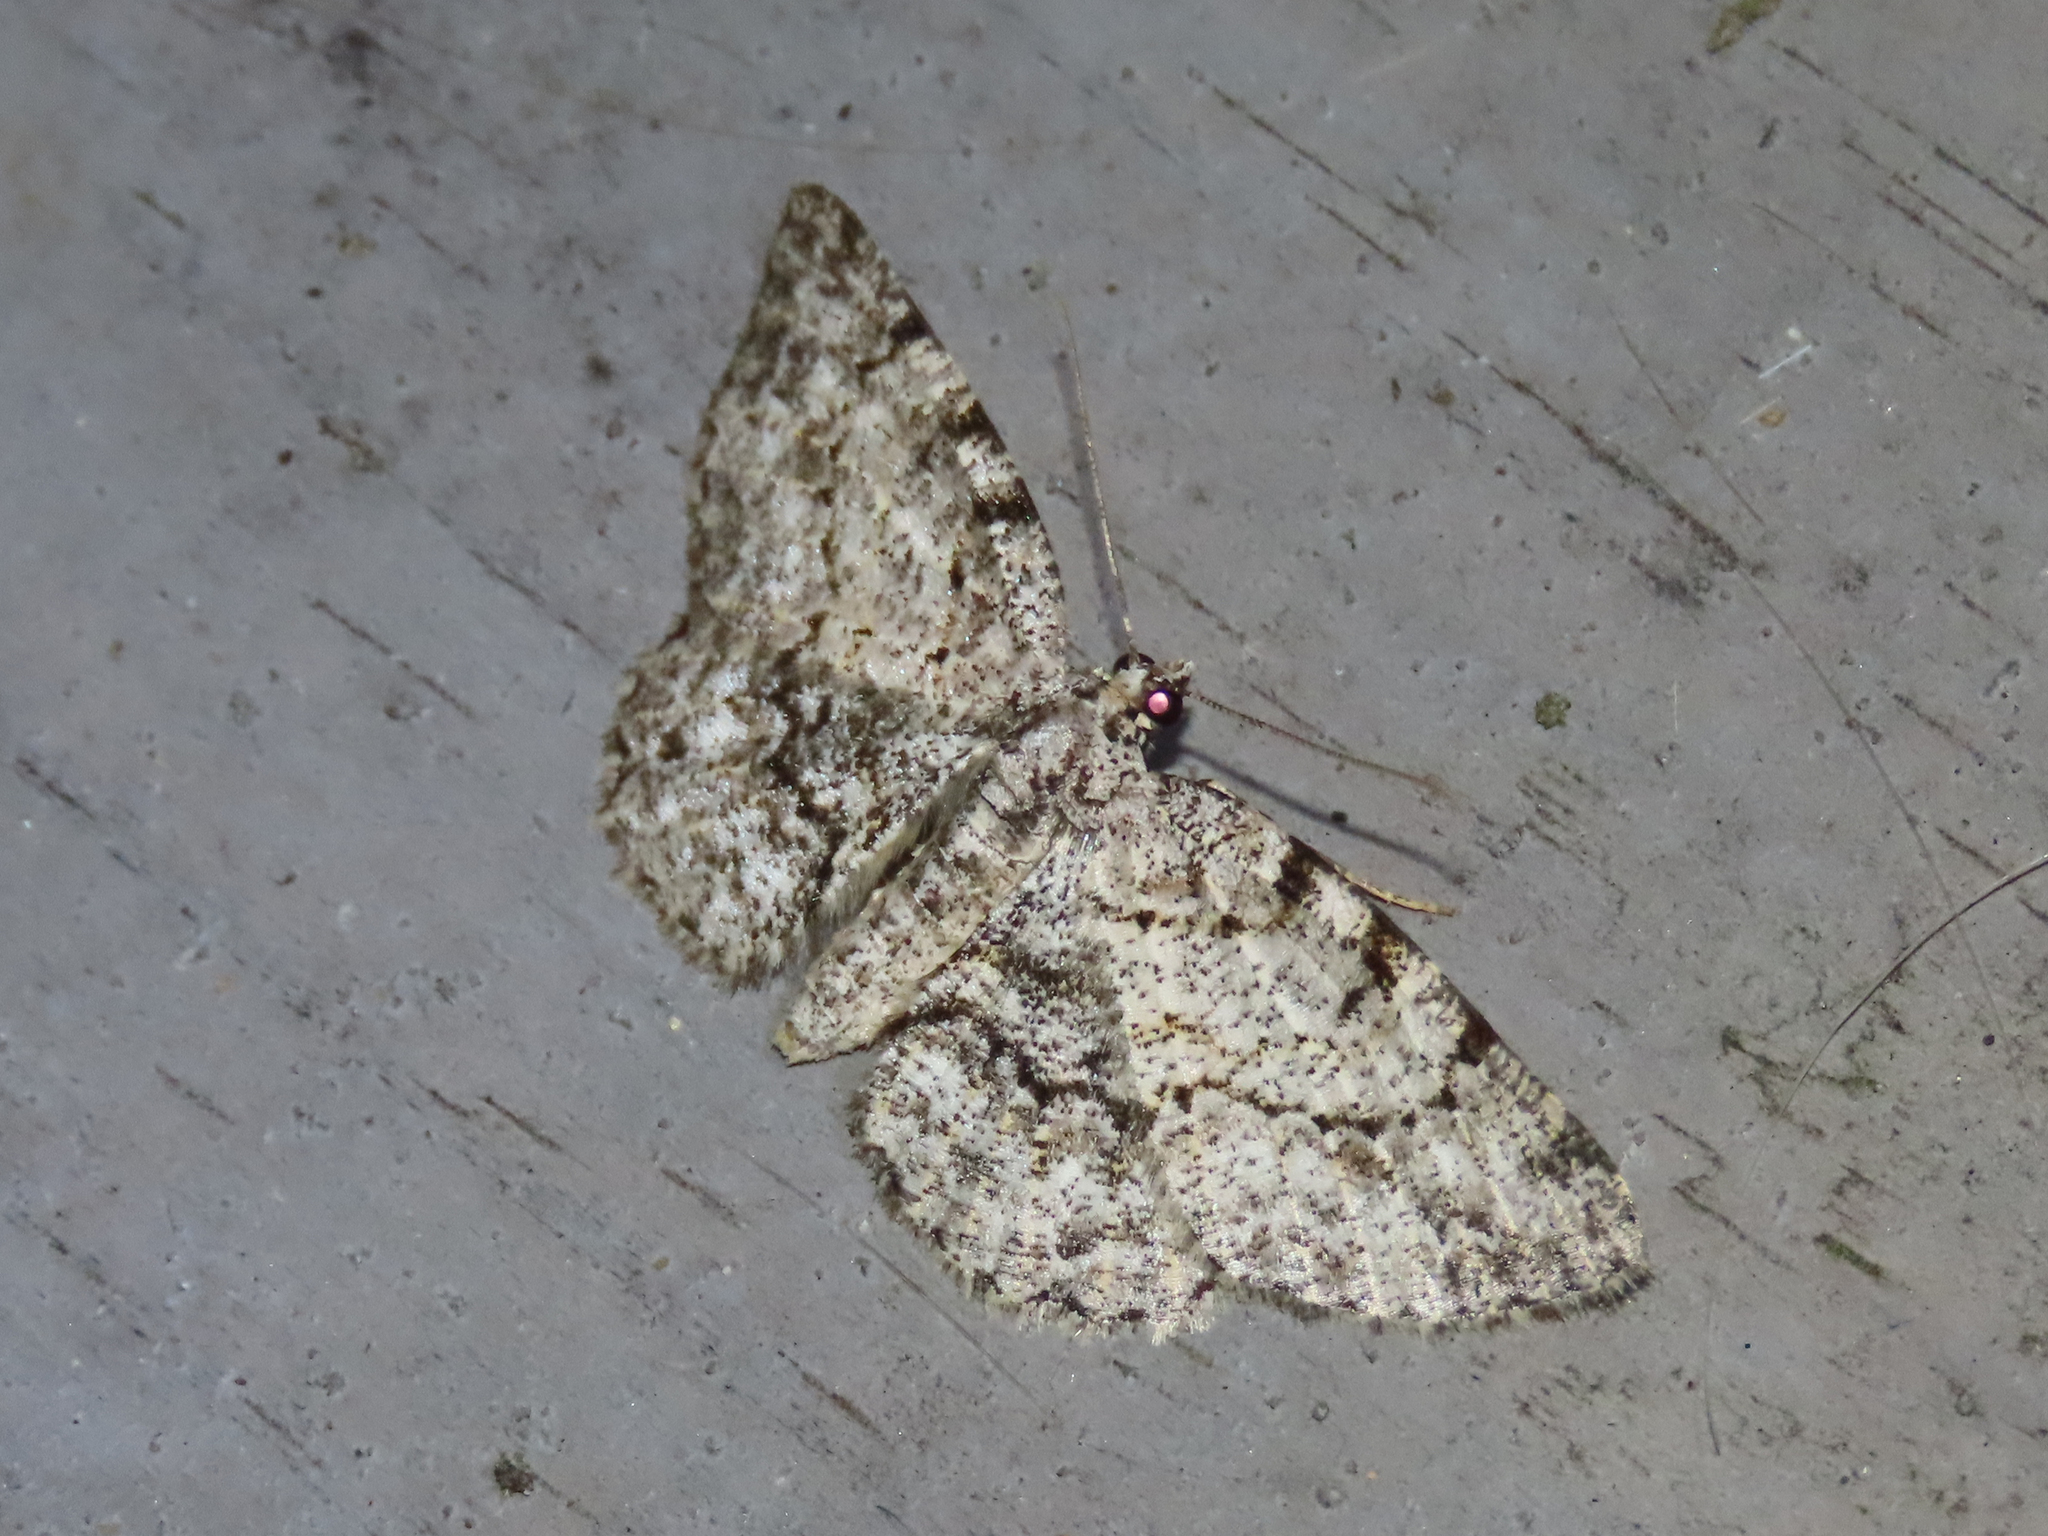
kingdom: Animalia
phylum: Arthropoda
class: Insecta
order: Lepidoptera
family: Geometridae
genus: Protoboarmia
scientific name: Protoboarmia porcelaria
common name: Porcelain gray
